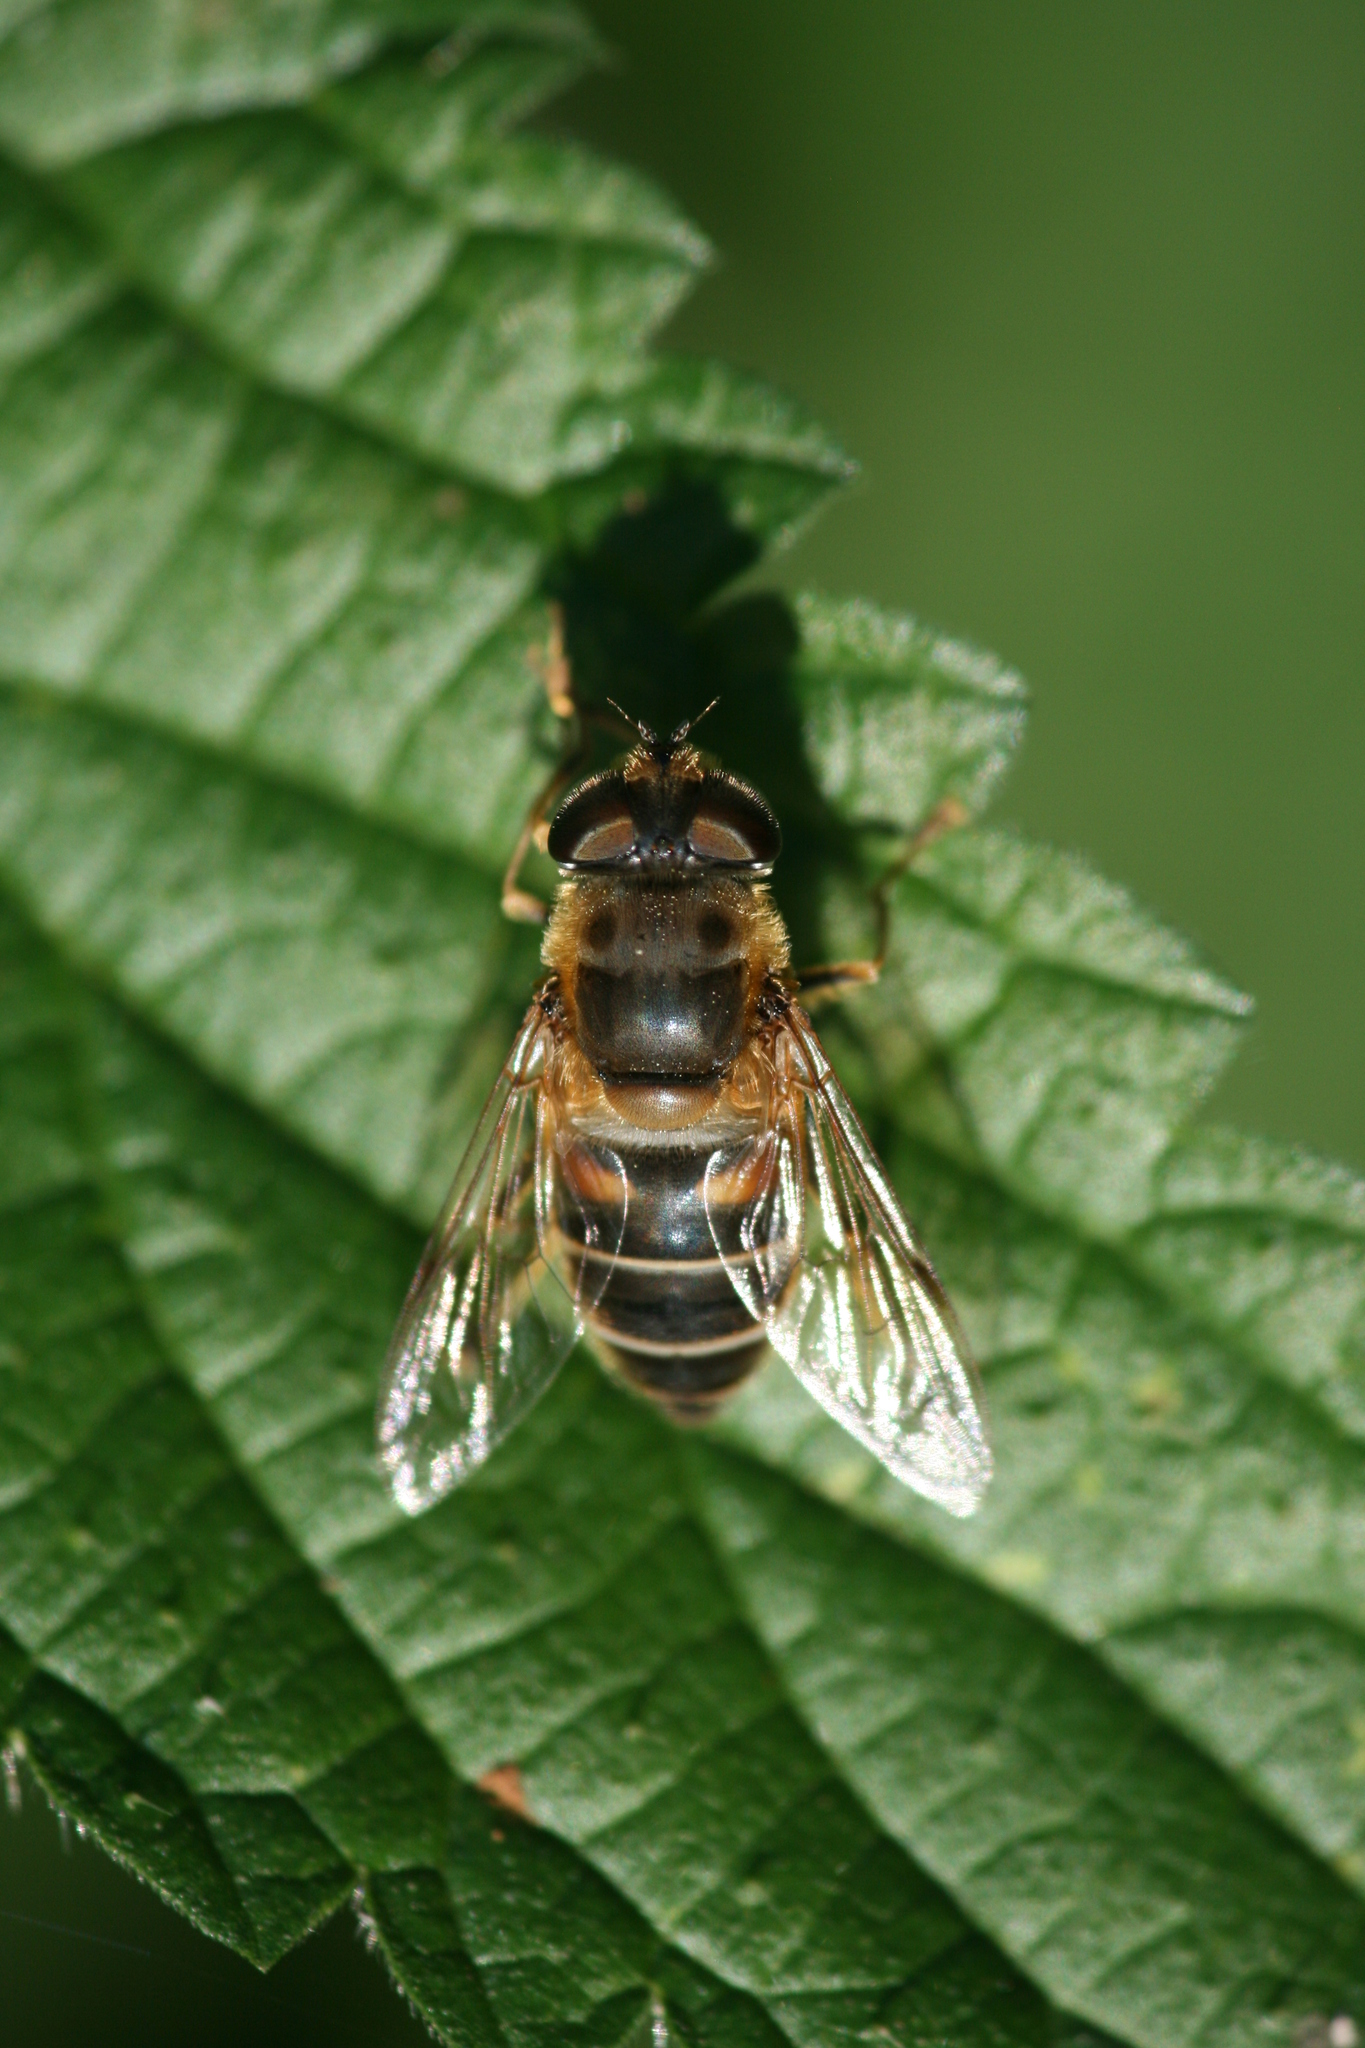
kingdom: Animalia
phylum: Arthropoda
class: Insecta
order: Diptera
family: Syrphidae
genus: Eristalis
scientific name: Eristalis pertinax
